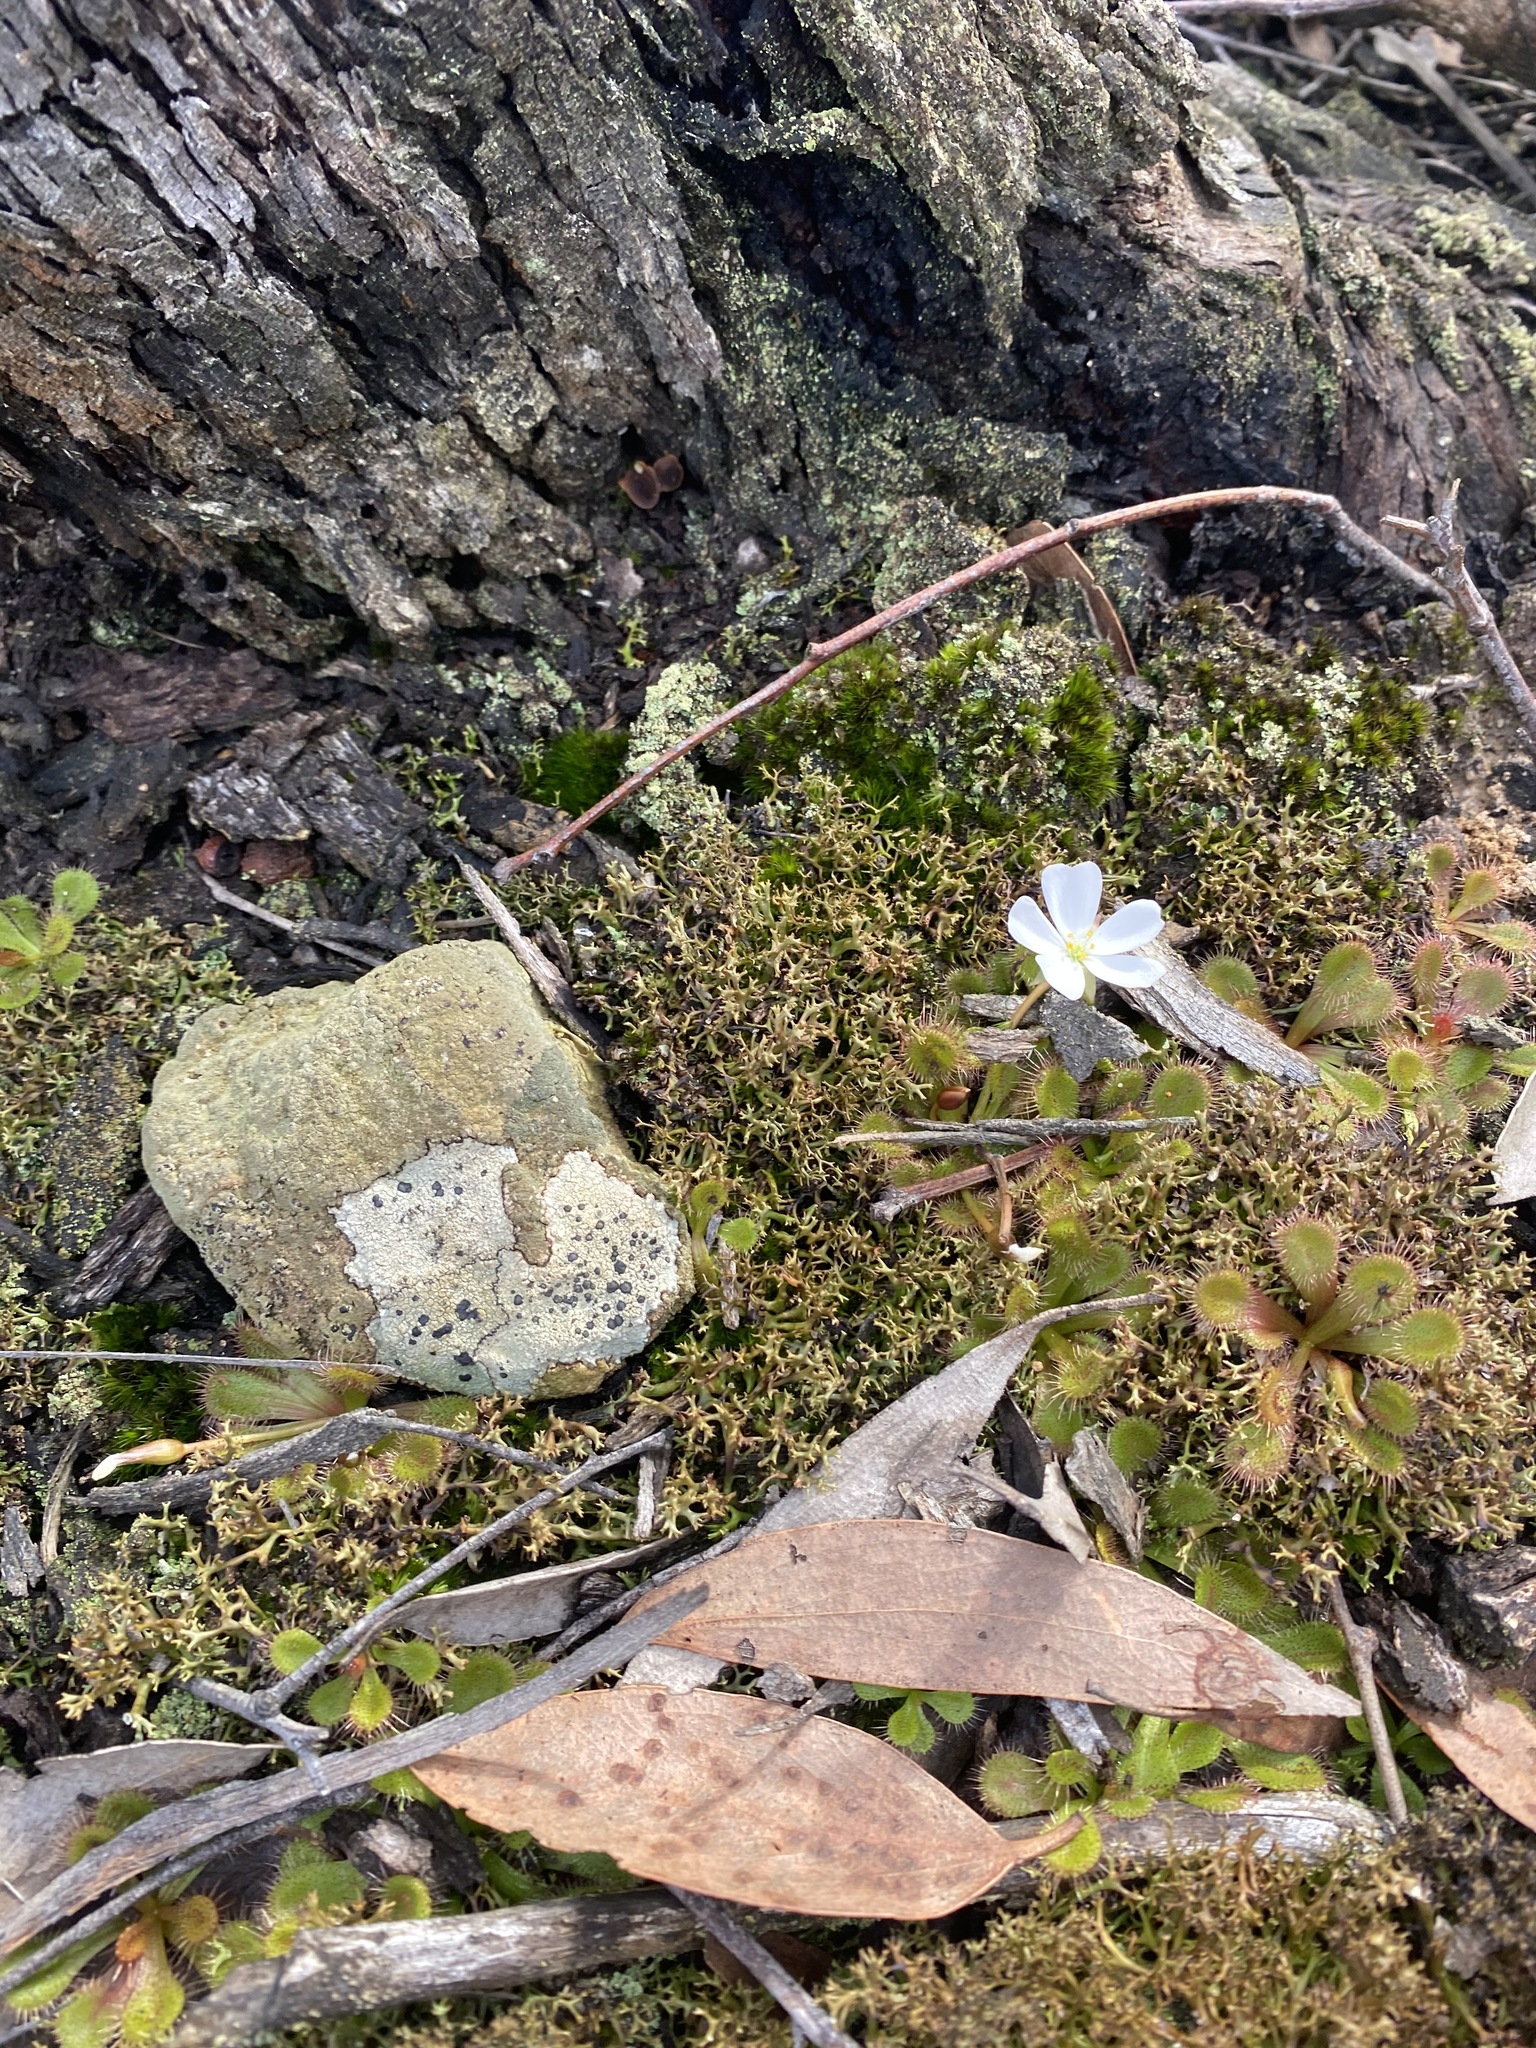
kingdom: Plantae
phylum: Tracheophyta
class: Magnoliopsida
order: Caryophyllales
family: Droseraceae
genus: Drosera
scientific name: Drosera aberrans
